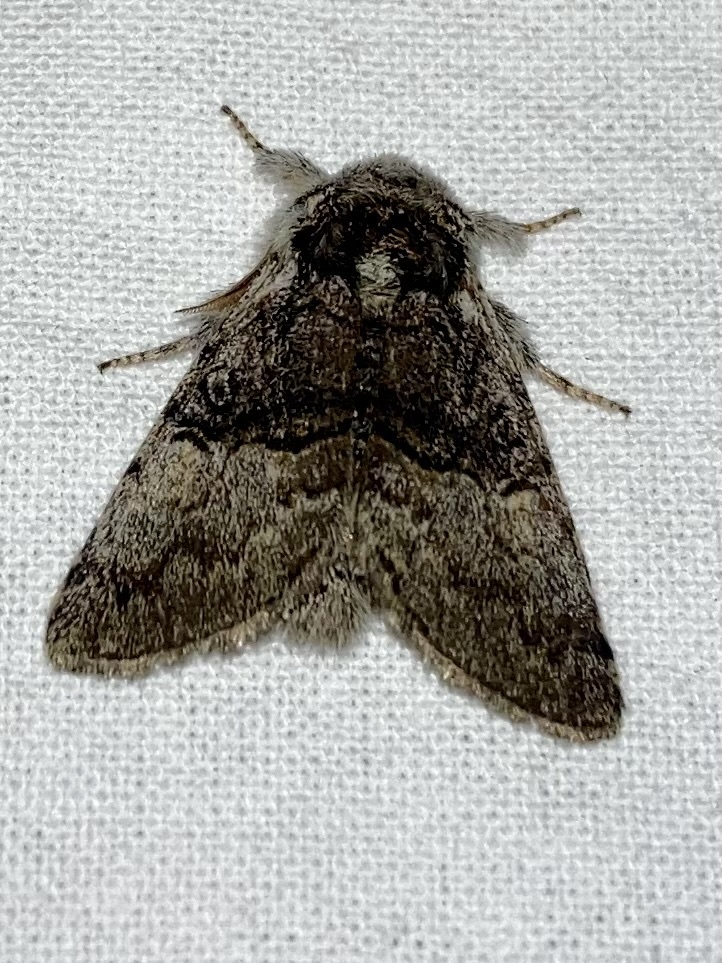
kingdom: Animalia
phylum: Arthropoda
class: Insecta
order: Lepidoptera
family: Noctuidae
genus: Colocasia
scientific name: Colocasia coryli
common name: Nut-tree tussock
